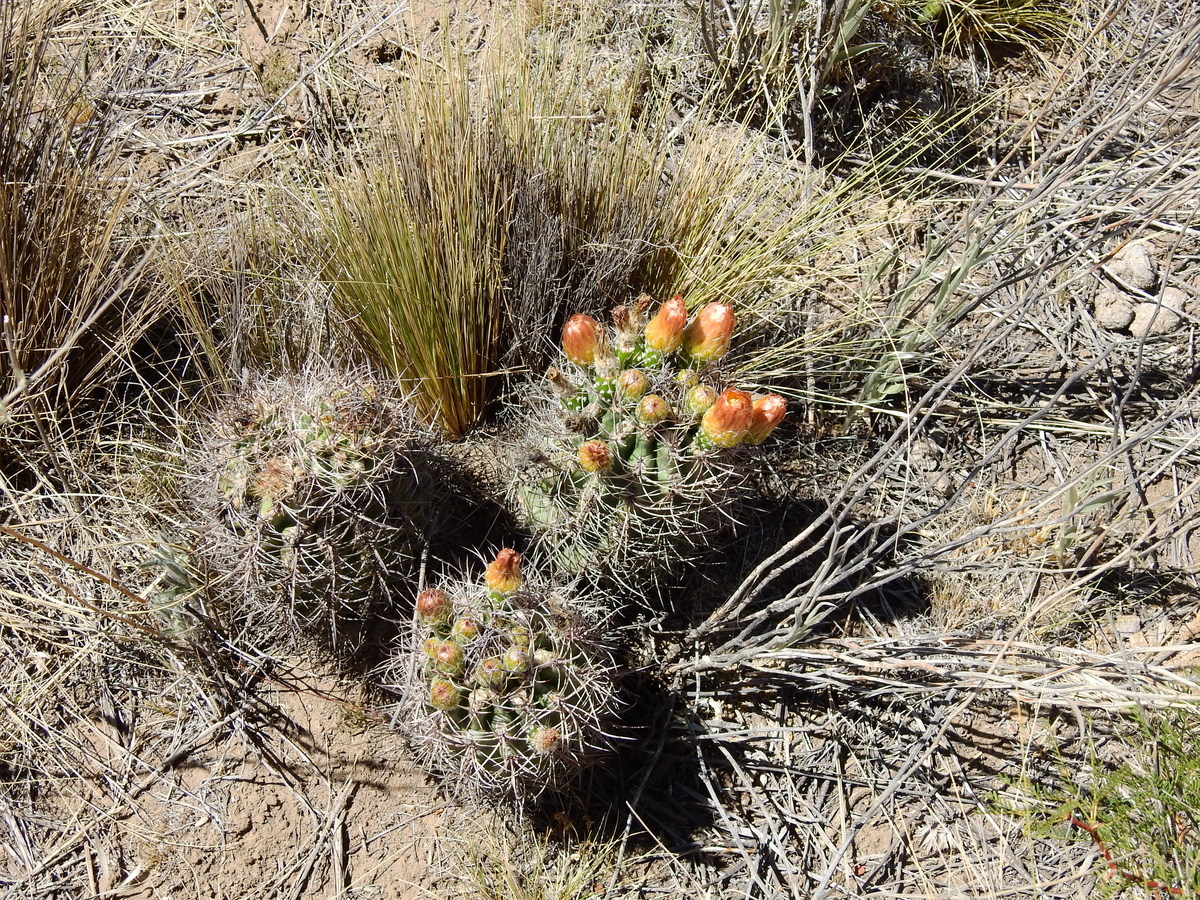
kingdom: Plantae
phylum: Tracheophyta
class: Magnoliopsida
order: Caryophyllales
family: Cactaceae
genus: Eriosyce
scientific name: Eriosyce strausiana
